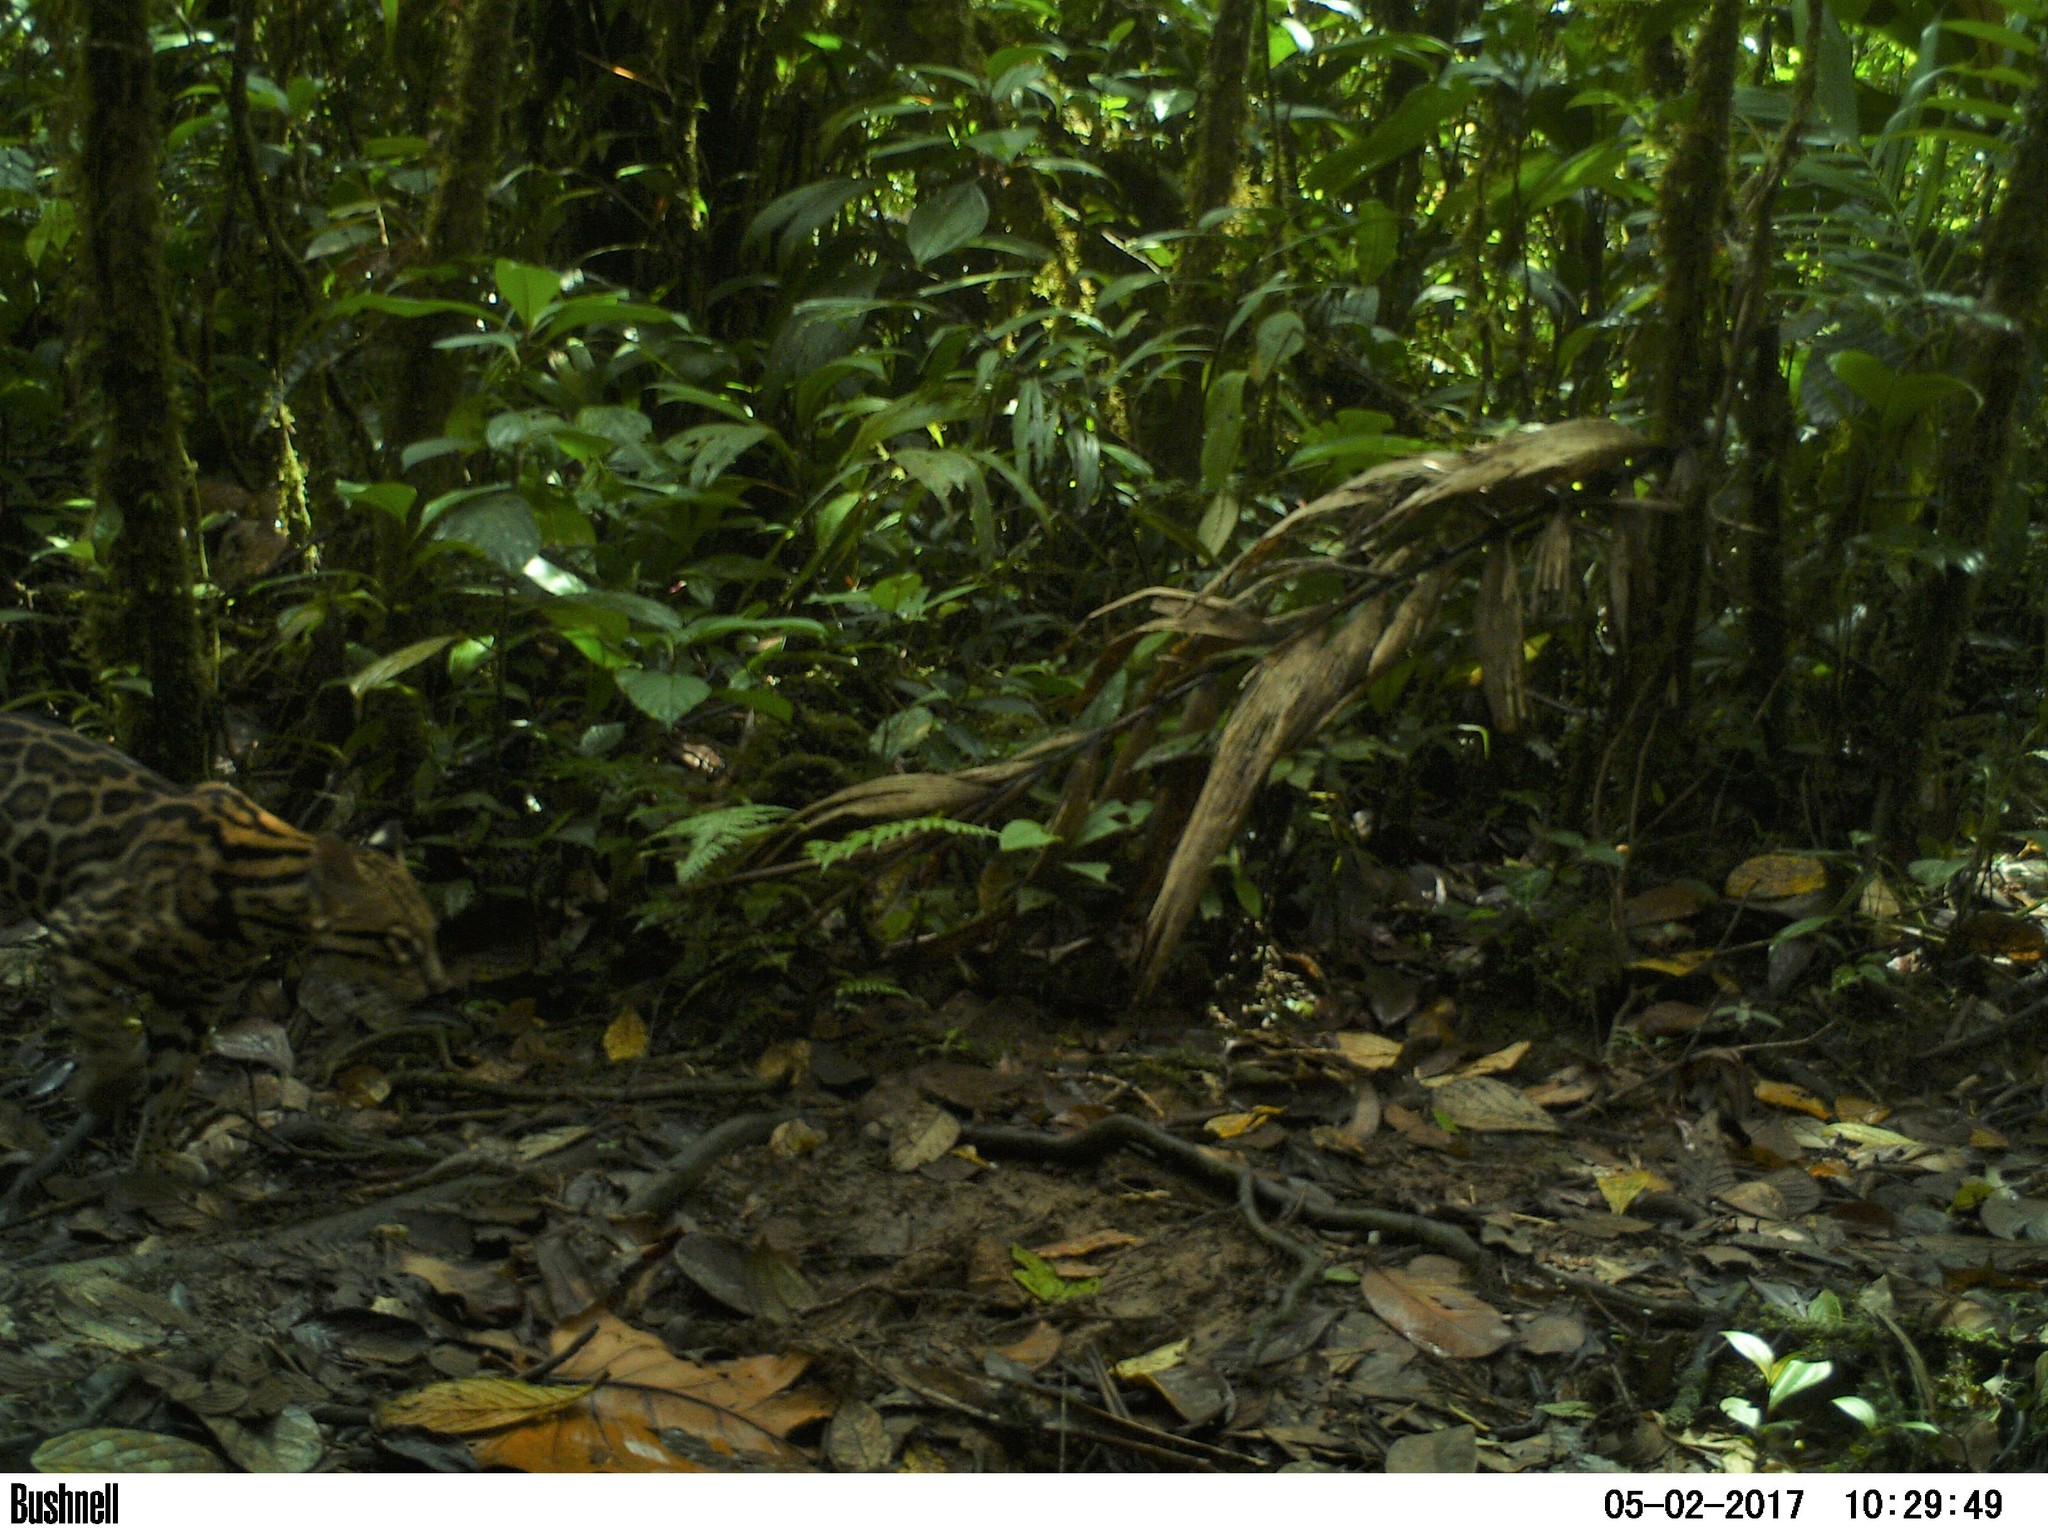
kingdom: Animalia
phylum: Chordata
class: Mammalia
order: Carnivora
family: Felidae
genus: Leopardus
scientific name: Leopardus pardalis
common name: Ocelot
